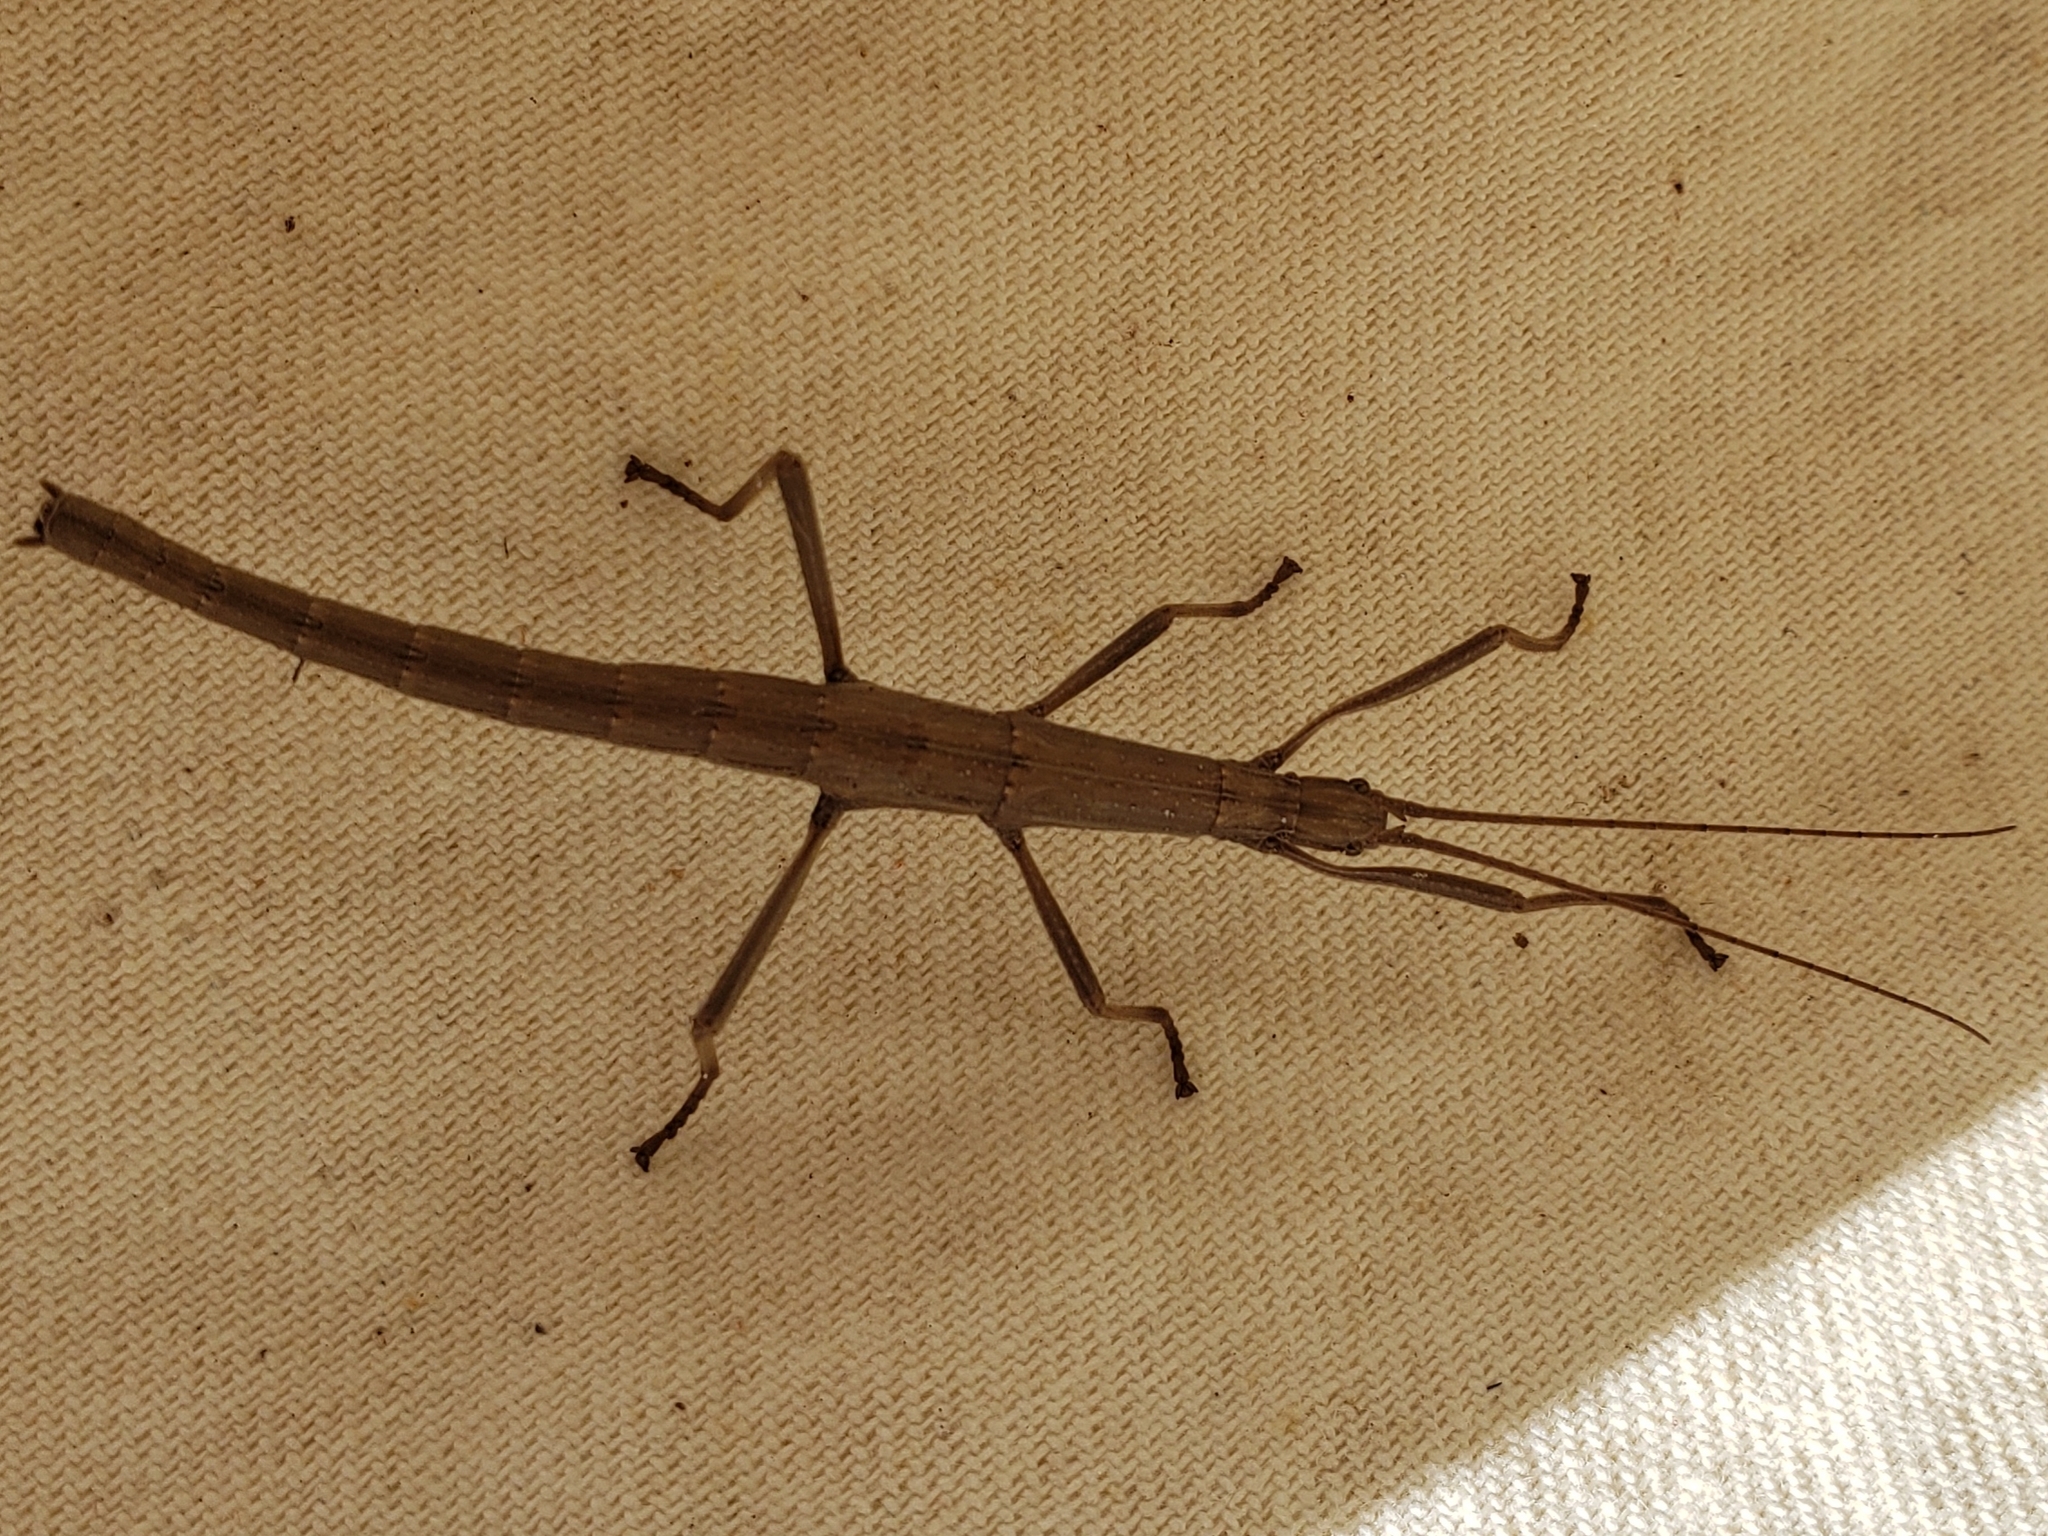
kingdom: Animalia
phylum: Arthropoda
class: Insecta
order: Phasmida
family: Pseudophasmatidae
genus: Anisomorpha
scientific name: Anisomorpha buprestoides
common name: Florida stick insect
